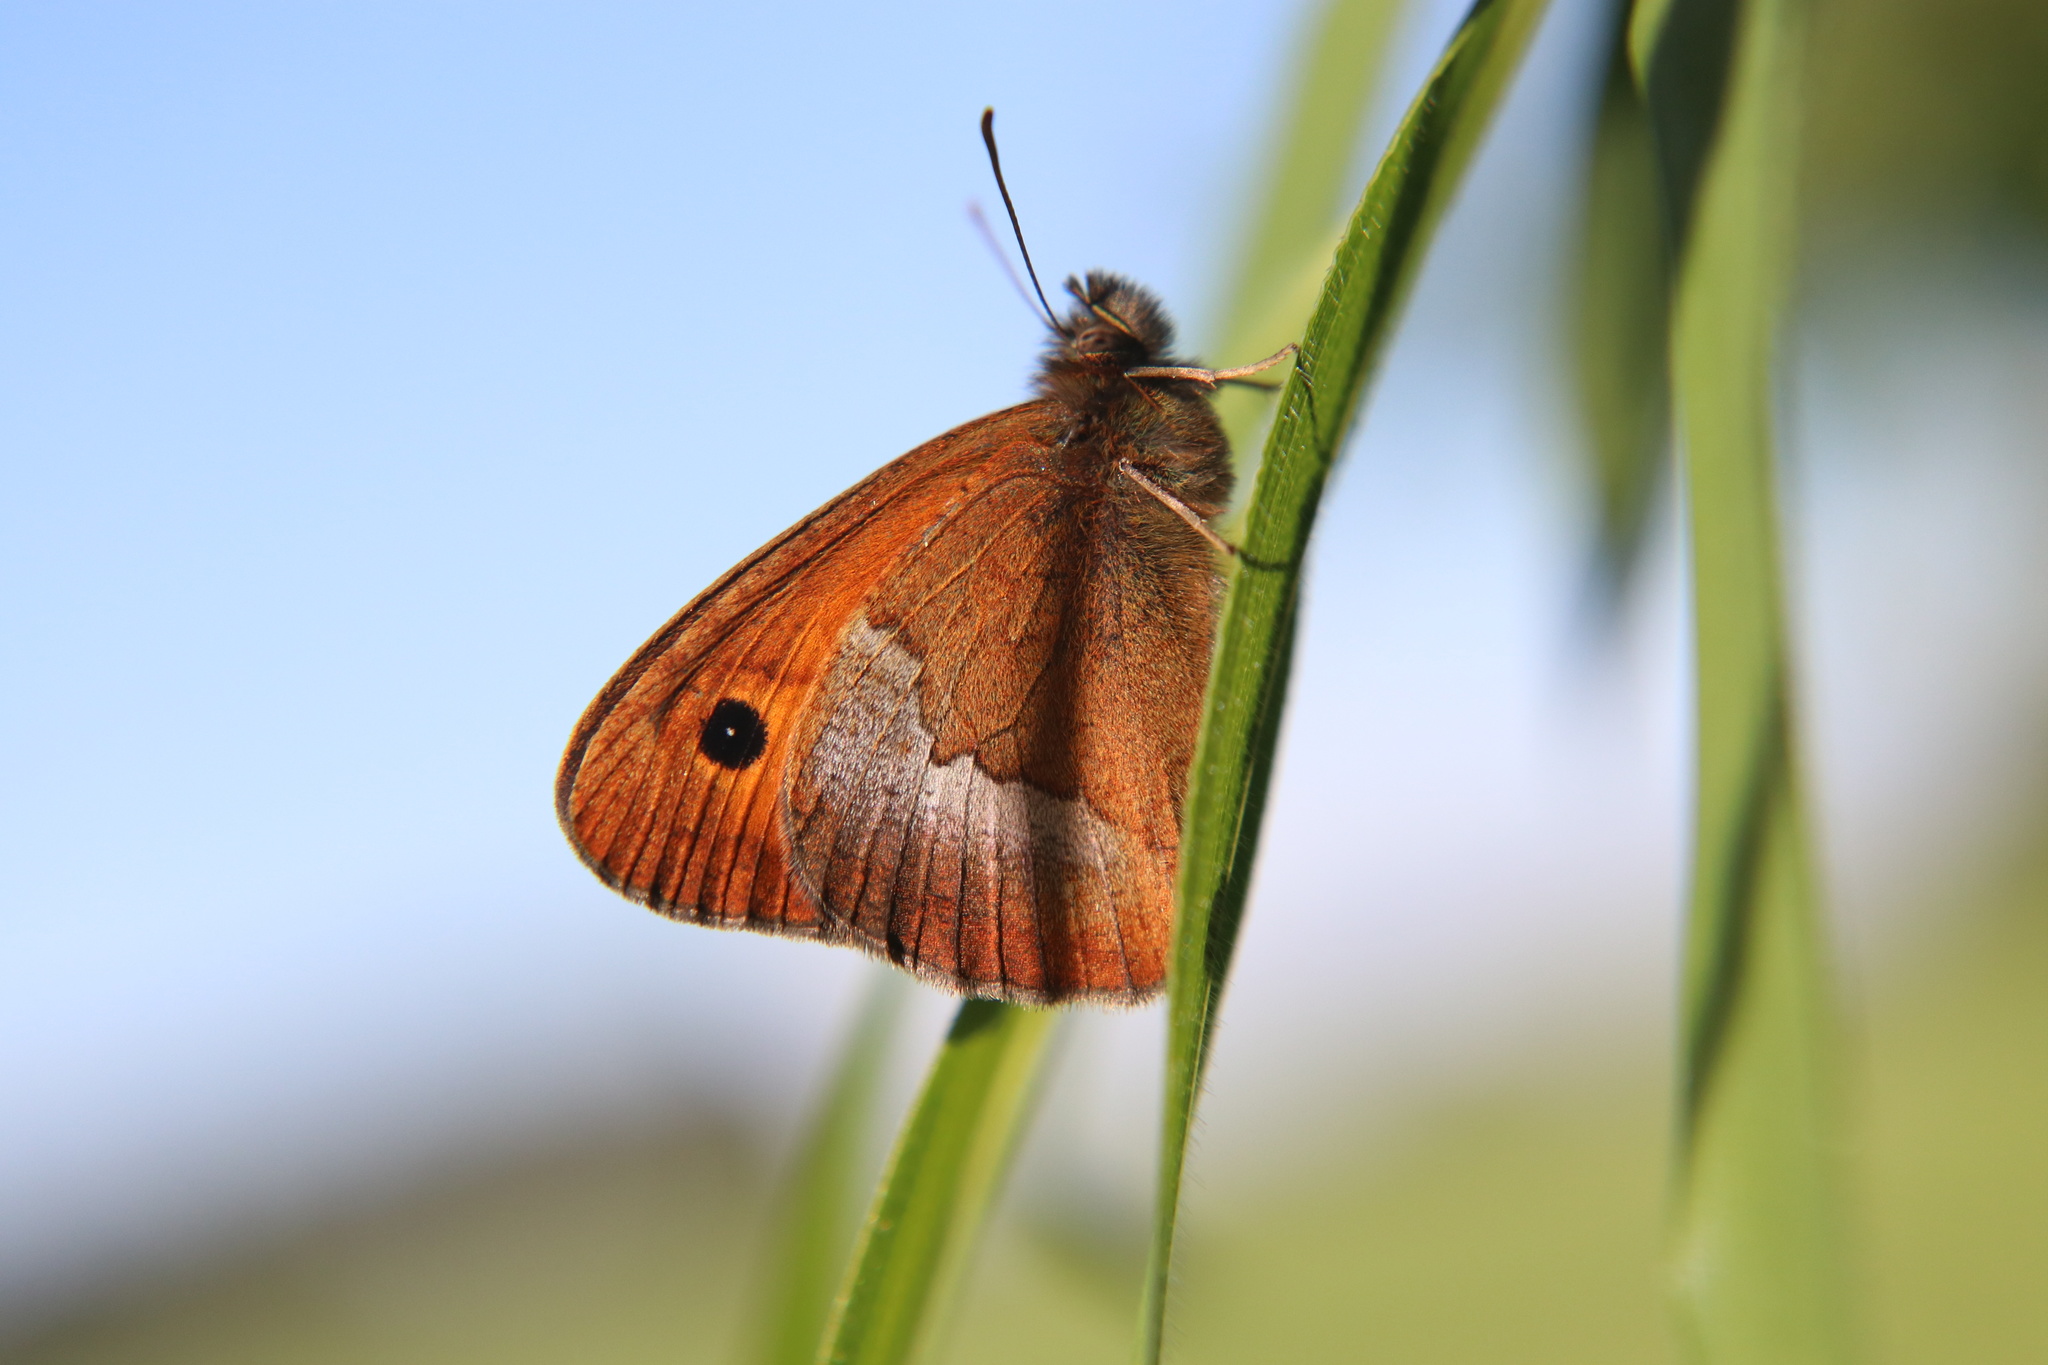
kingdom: Animalia
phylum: Arthropoda
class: Insecta
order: Lepidoptera
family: Nymphalidae
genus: Neomaenas
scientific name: Neomaenas poliozona
